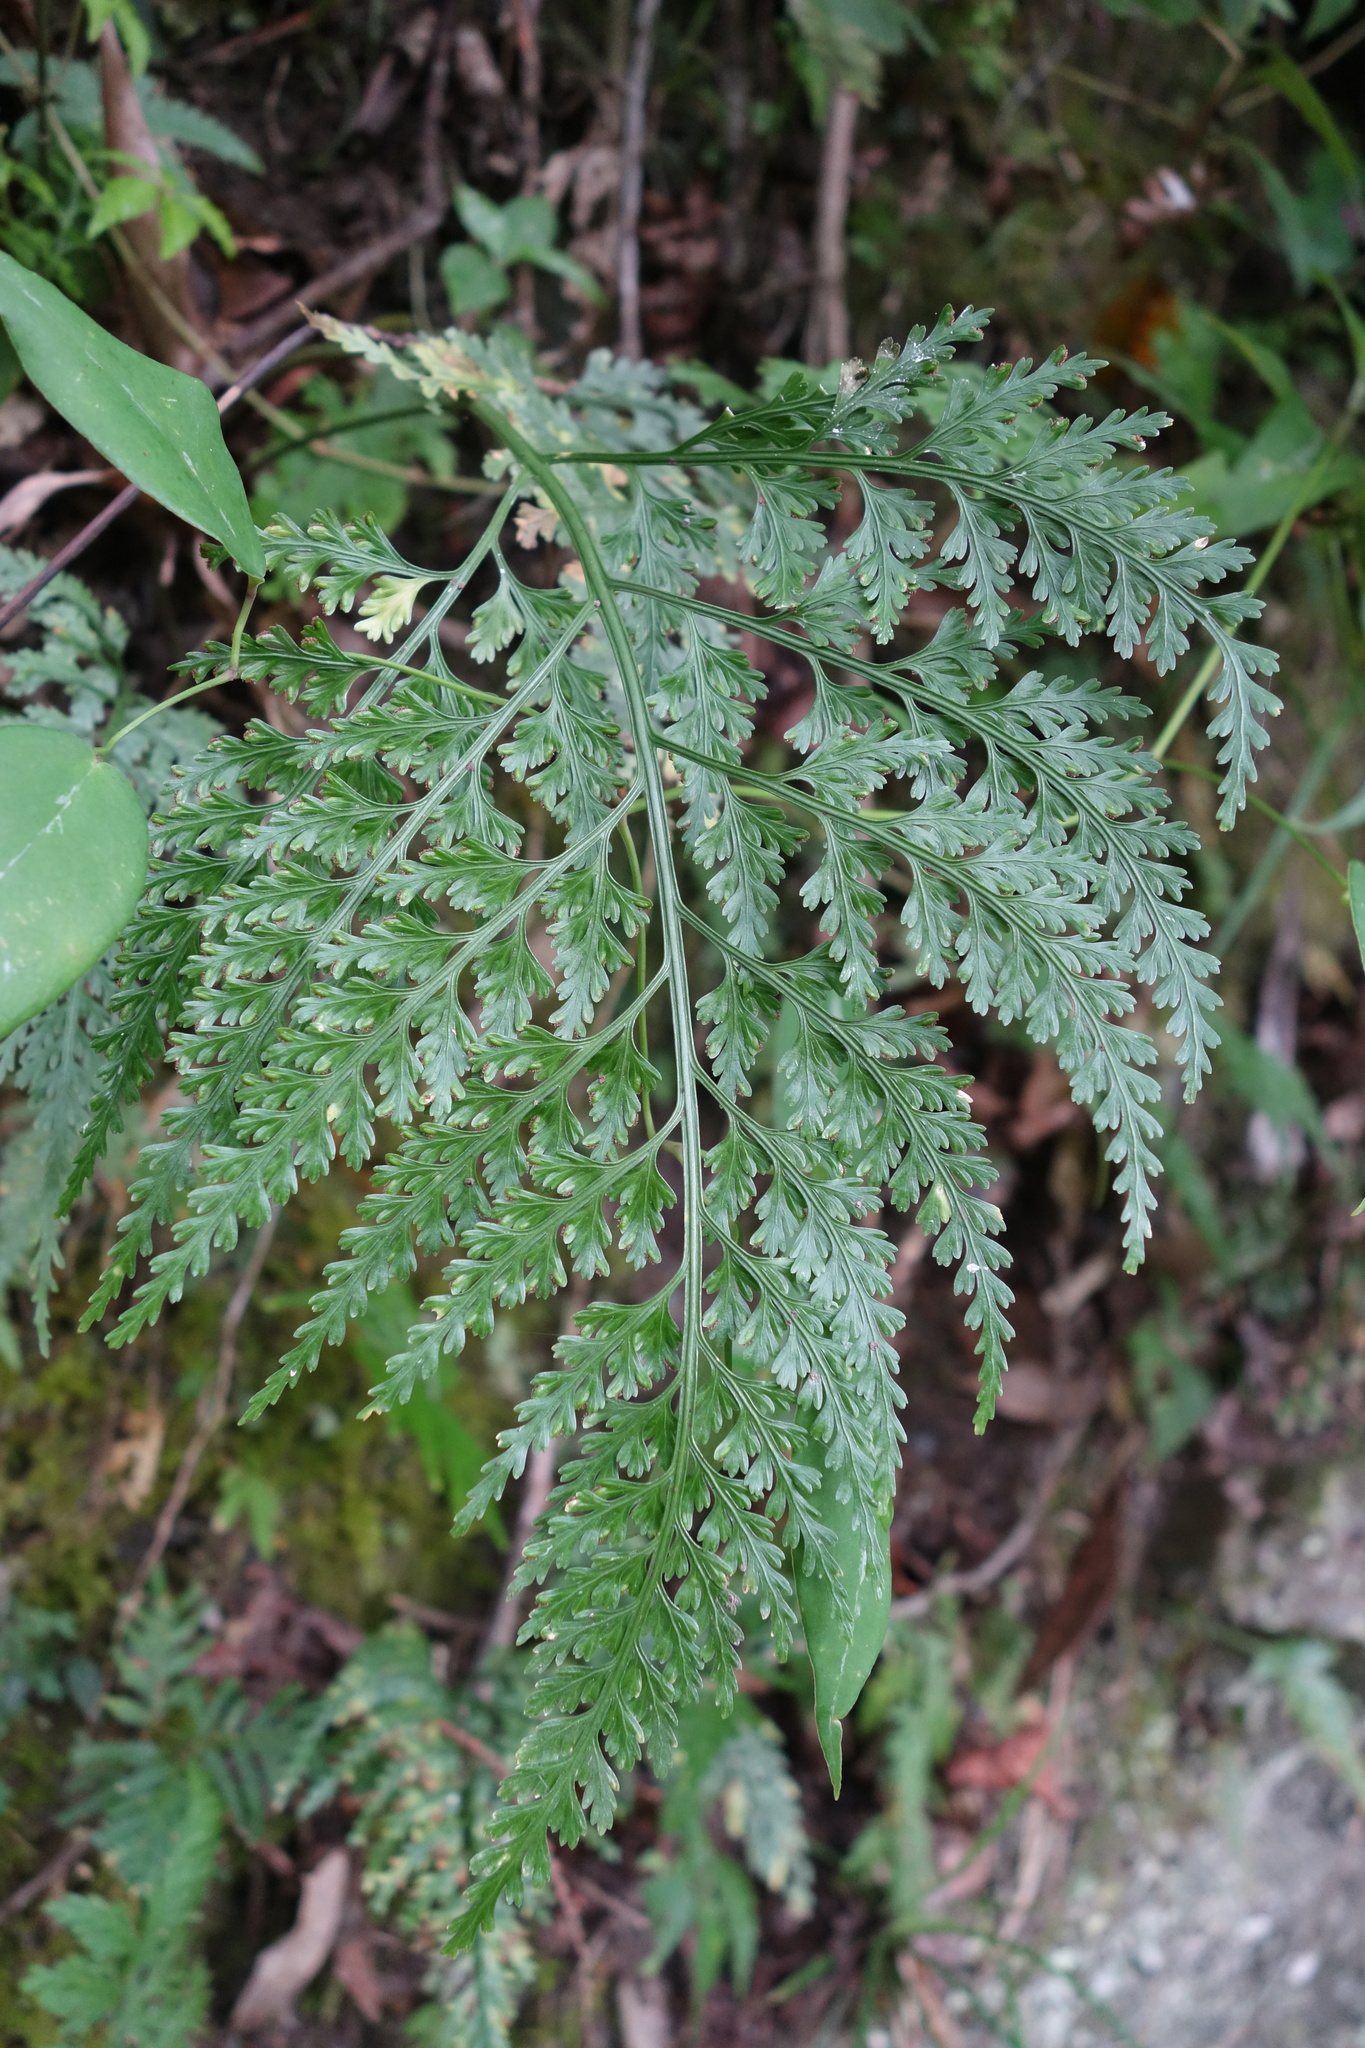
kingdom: Plantae
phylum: Tracheophyta
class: Polypodiopsida
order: Polypodiales
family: Aspleniaceae
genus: Asplenium
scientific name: Asplenium ritoense
